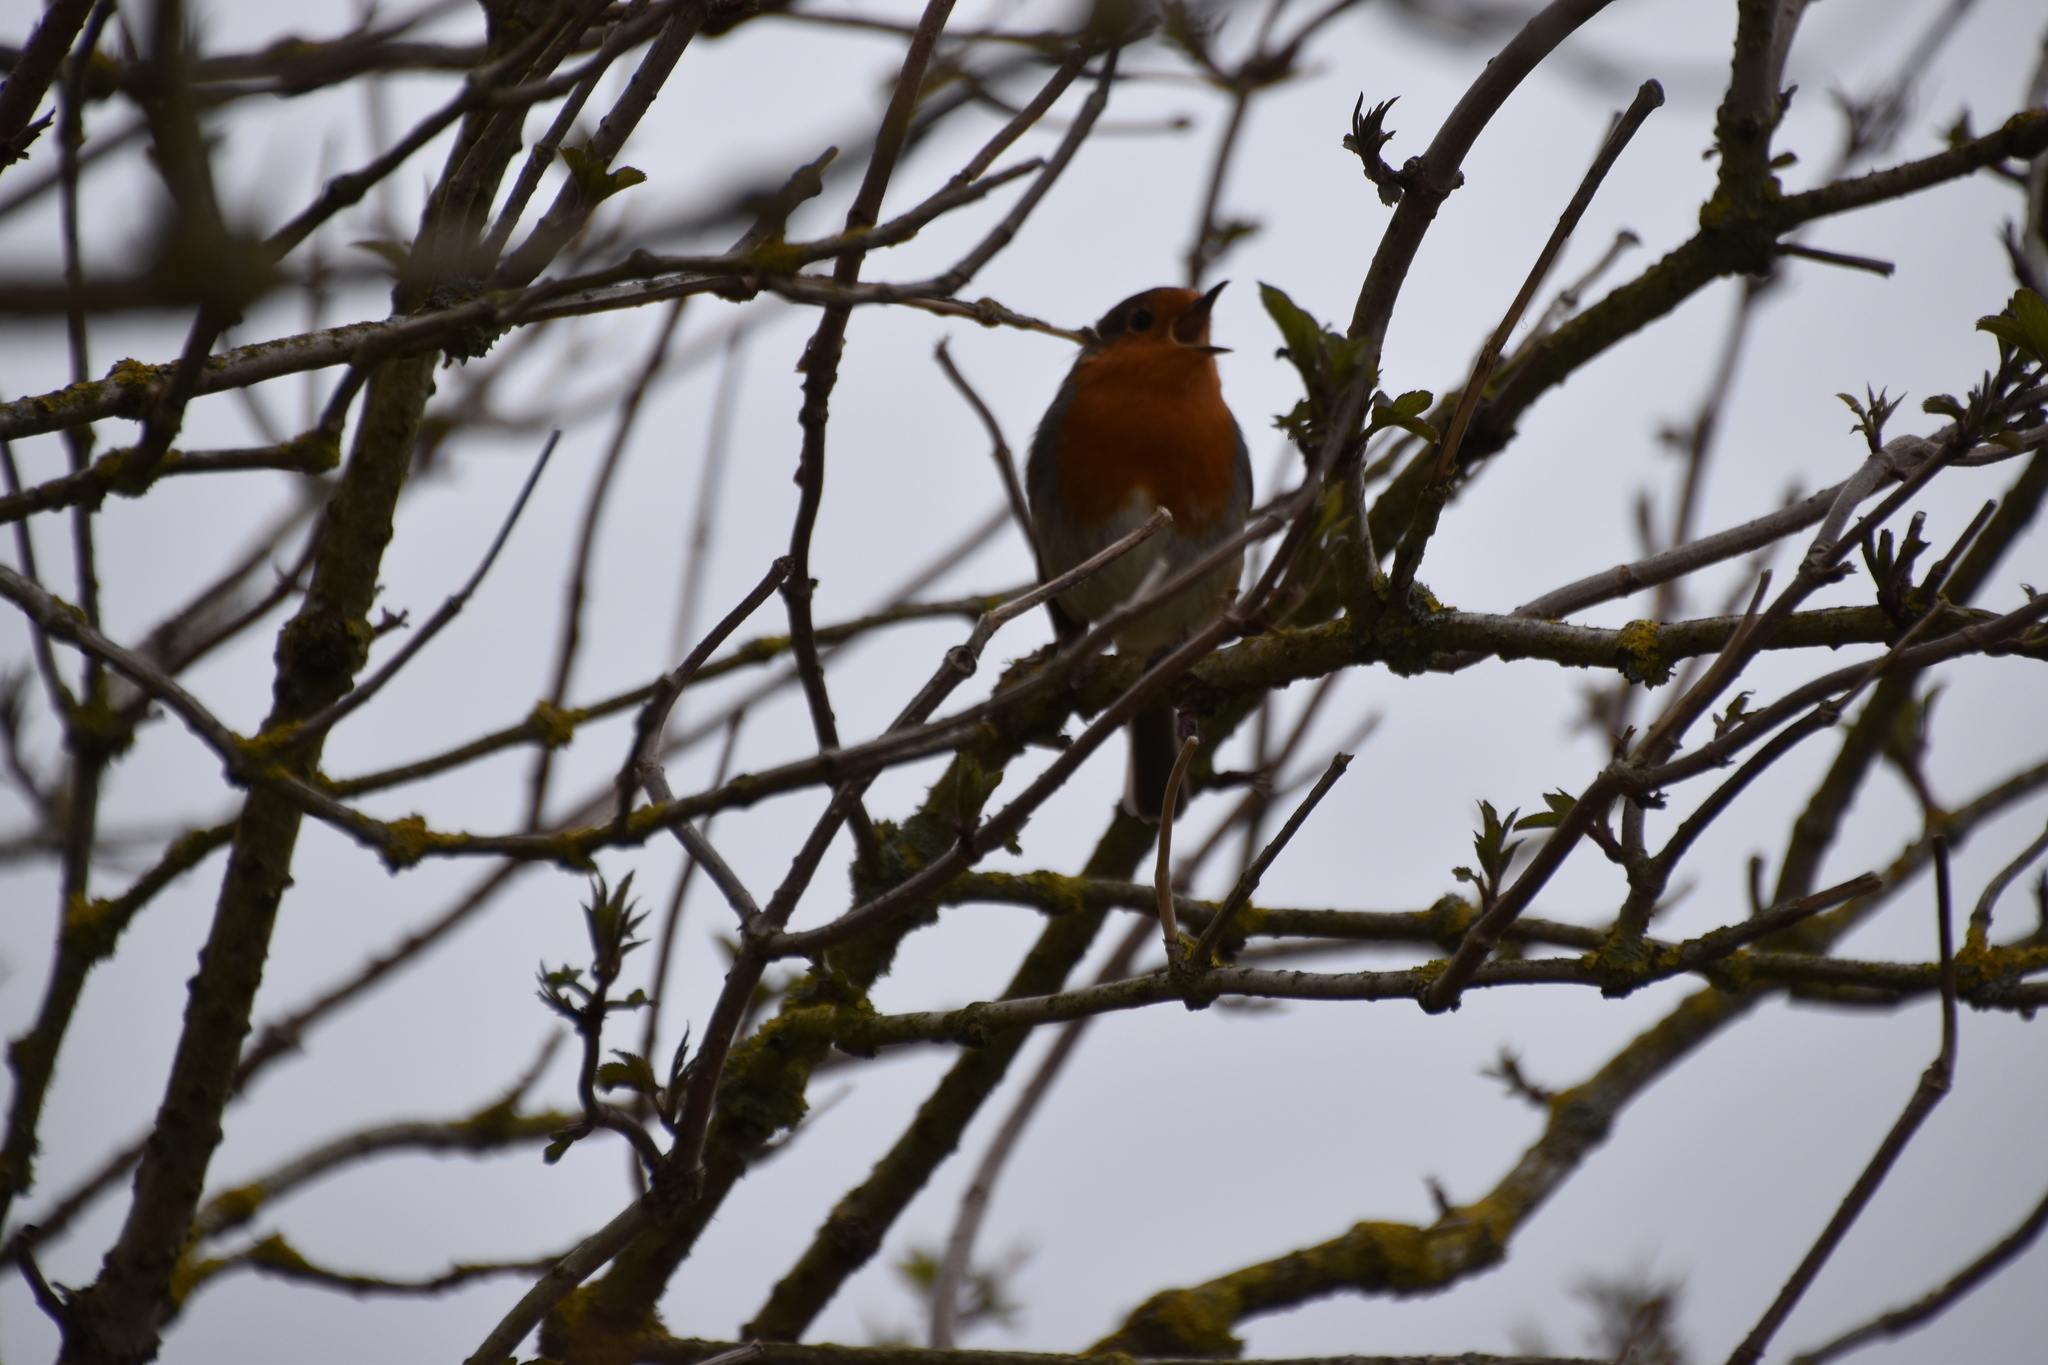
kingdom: Animalia
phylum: Chordata
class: Aves
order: Passeriformes
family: Muscicapidae
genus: Erithacus
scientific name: Erithacus rubecula
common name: European robin
